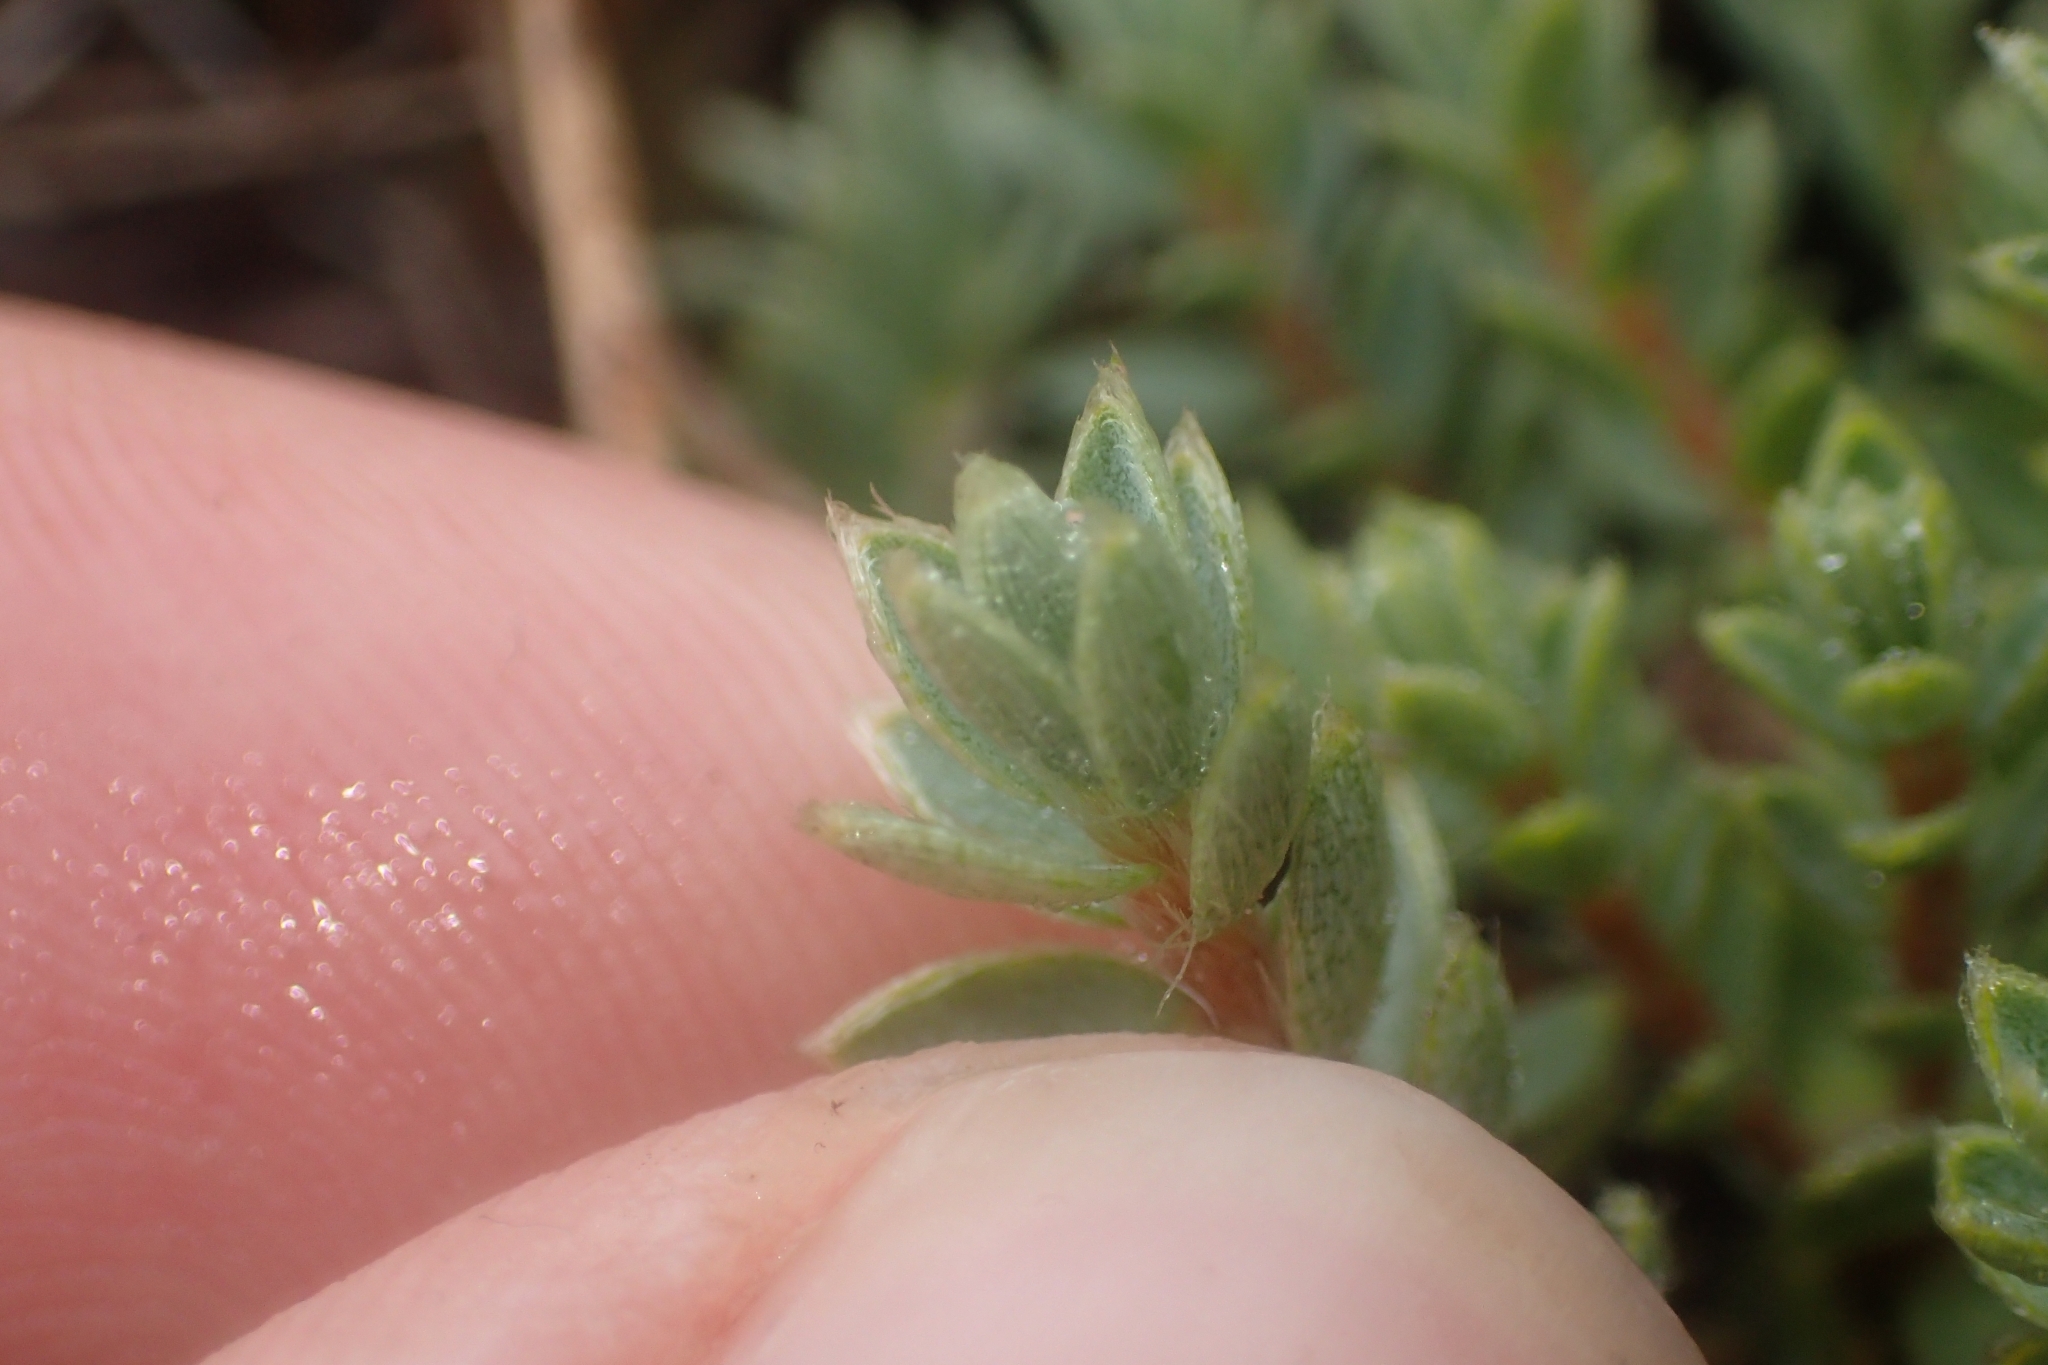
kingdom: Plantae
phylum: Tracheophyta
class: Magnoliopsida
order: Malvales
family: Thymelaeaceae
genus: Pimelea
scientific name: Pimelea oreophila
